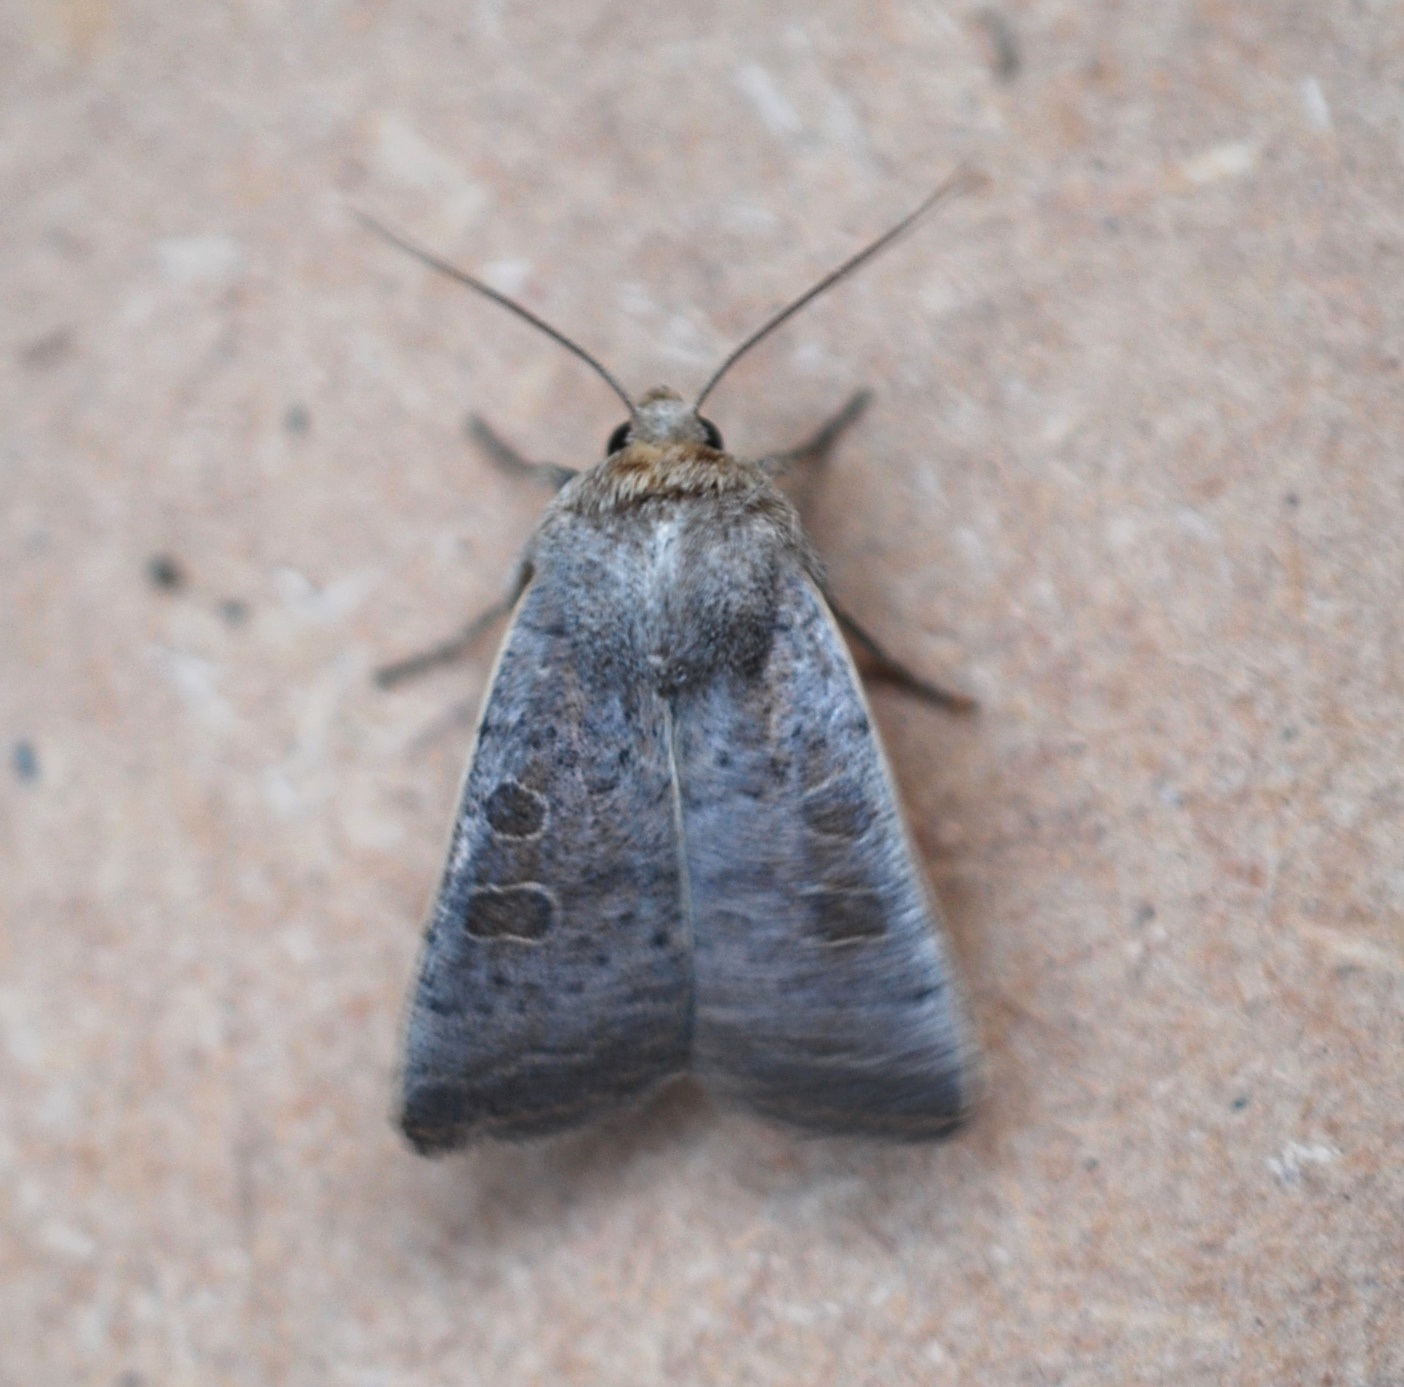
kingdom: Animalia
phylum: Arthropoda
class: Insecta
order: Lepidoptera
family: Noctuidae
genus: Hoplodrina
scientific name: Hoplodrina ambigua
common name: Vine's rustic
